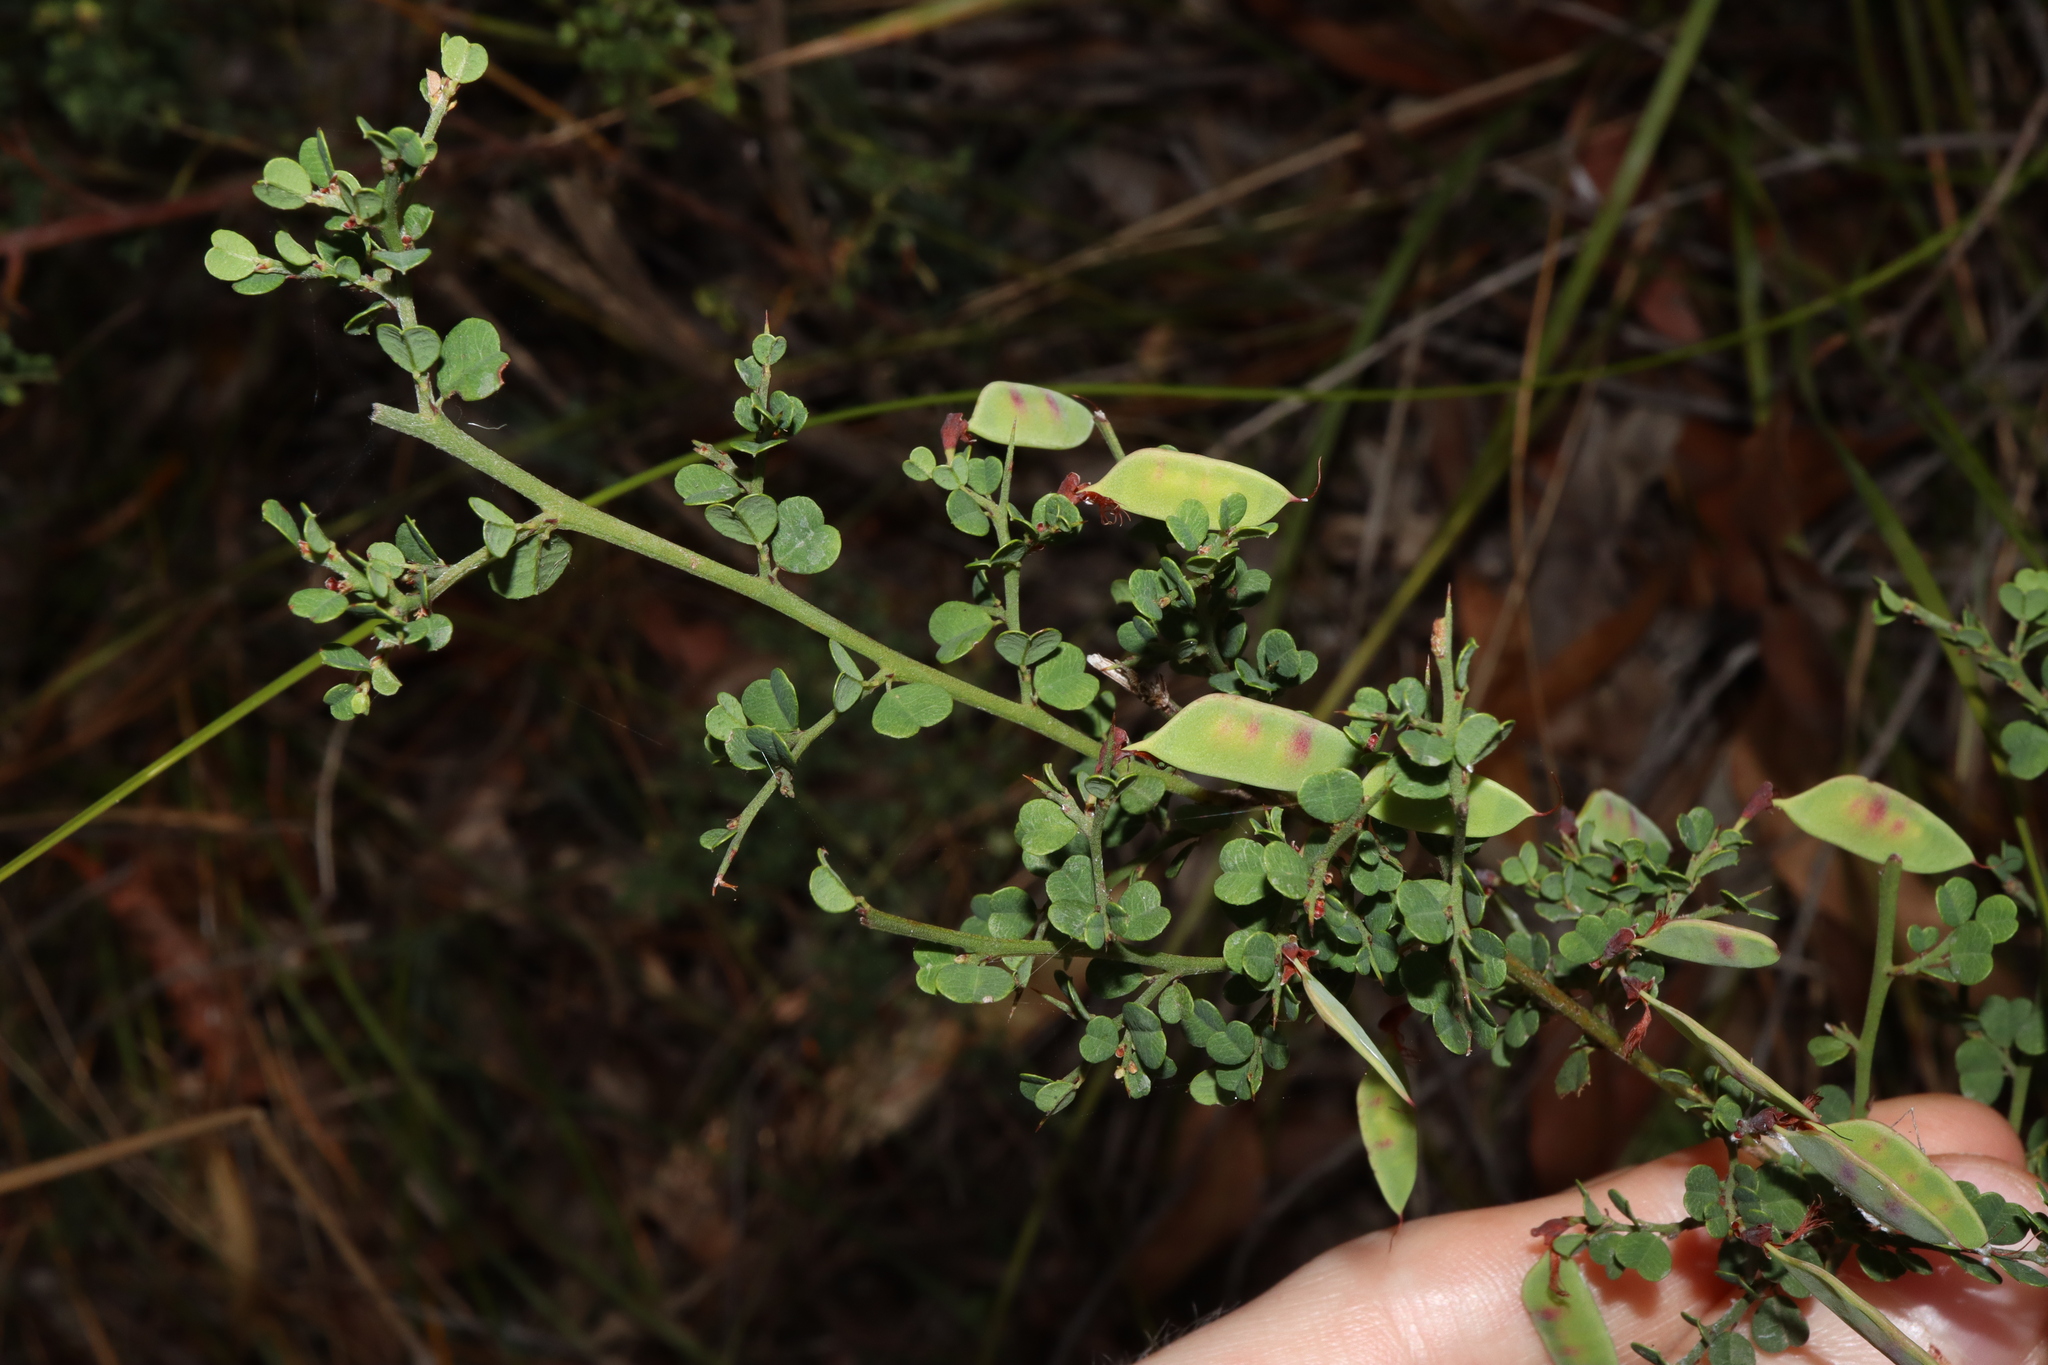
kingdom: Plantae
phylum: Tracheophyta
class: Magnoliopsida
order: Fabales
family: Fabaceae
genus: Bossiaea
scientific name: Bossiaea obcordata
